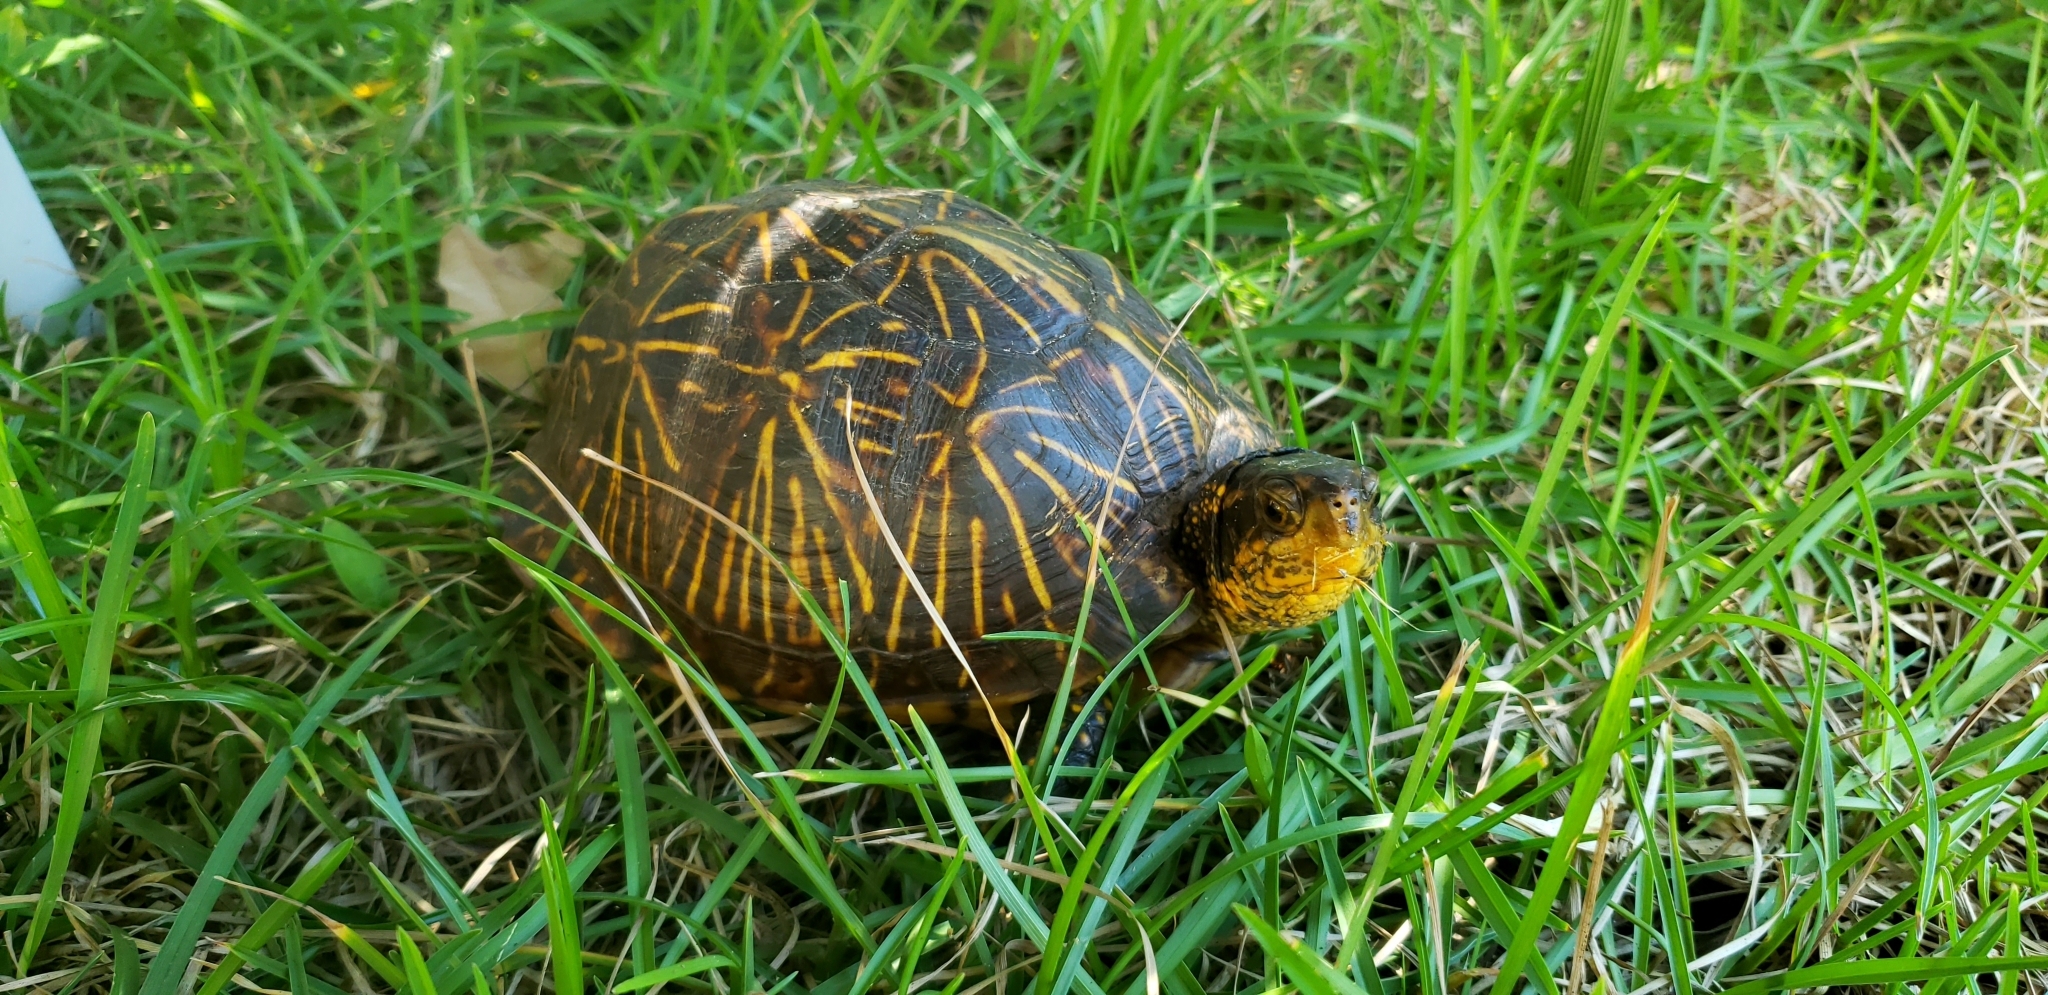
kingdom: Animalia
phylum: Chordata
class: Testudines
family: Emydidae
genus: Terrapene
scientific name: Terrapene carolina
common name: Common box turtle
